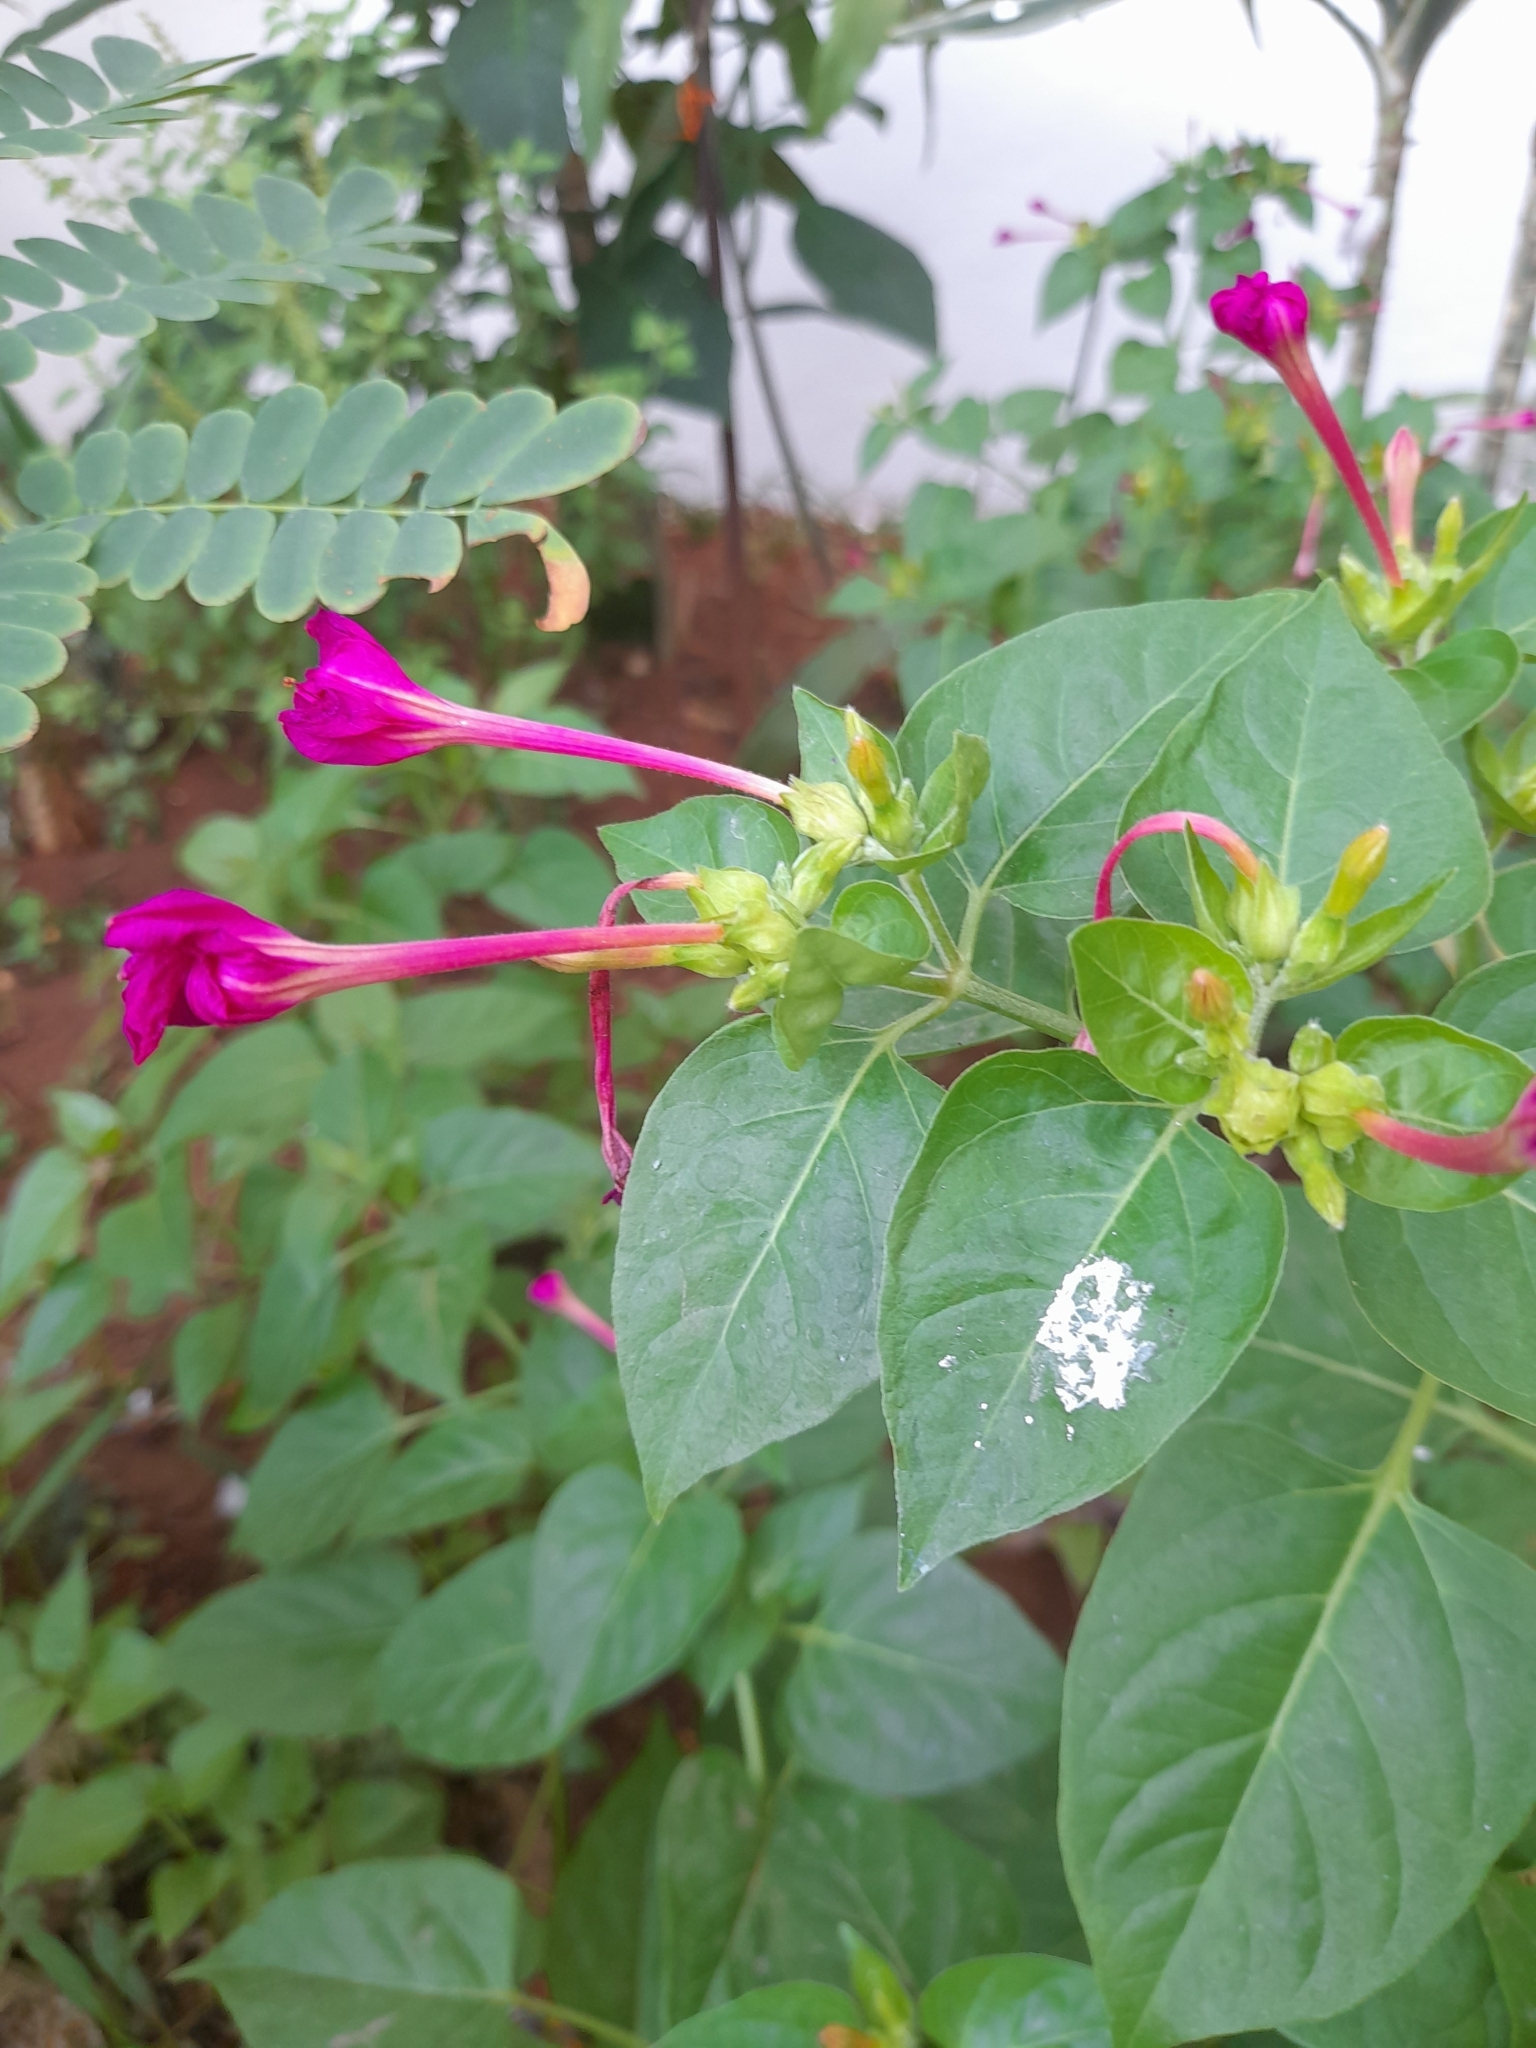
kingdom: Plantae
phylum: Tracheophyta
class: Magnoliopsida
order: Caryophyllales
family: Nyctaginaceae
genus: Mirabilis
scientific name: Mirabilis jalapa
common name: Marvel-of-peru
